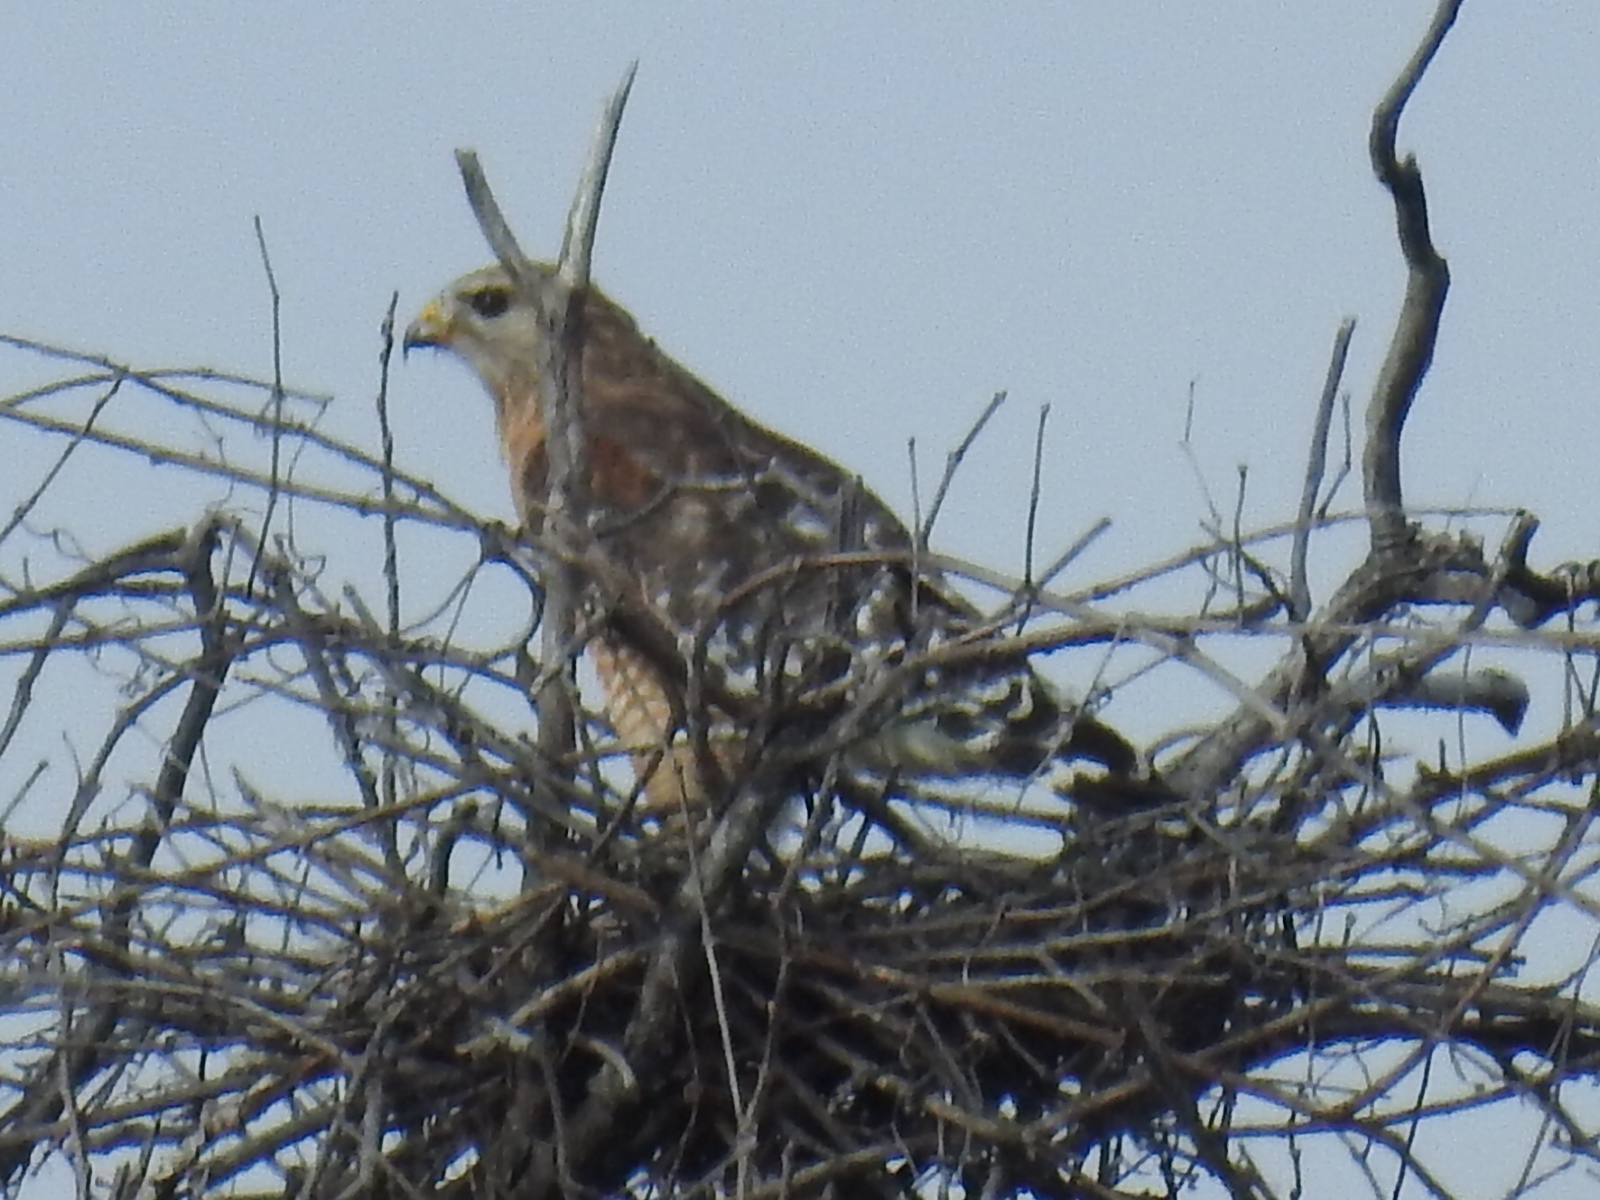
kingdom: Animalia
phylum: Chordata
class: Aves
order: Accipitriformes
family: Accipitridae
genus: Buteo
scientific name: Buteo lineatus
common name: Red-shouldered hawk
